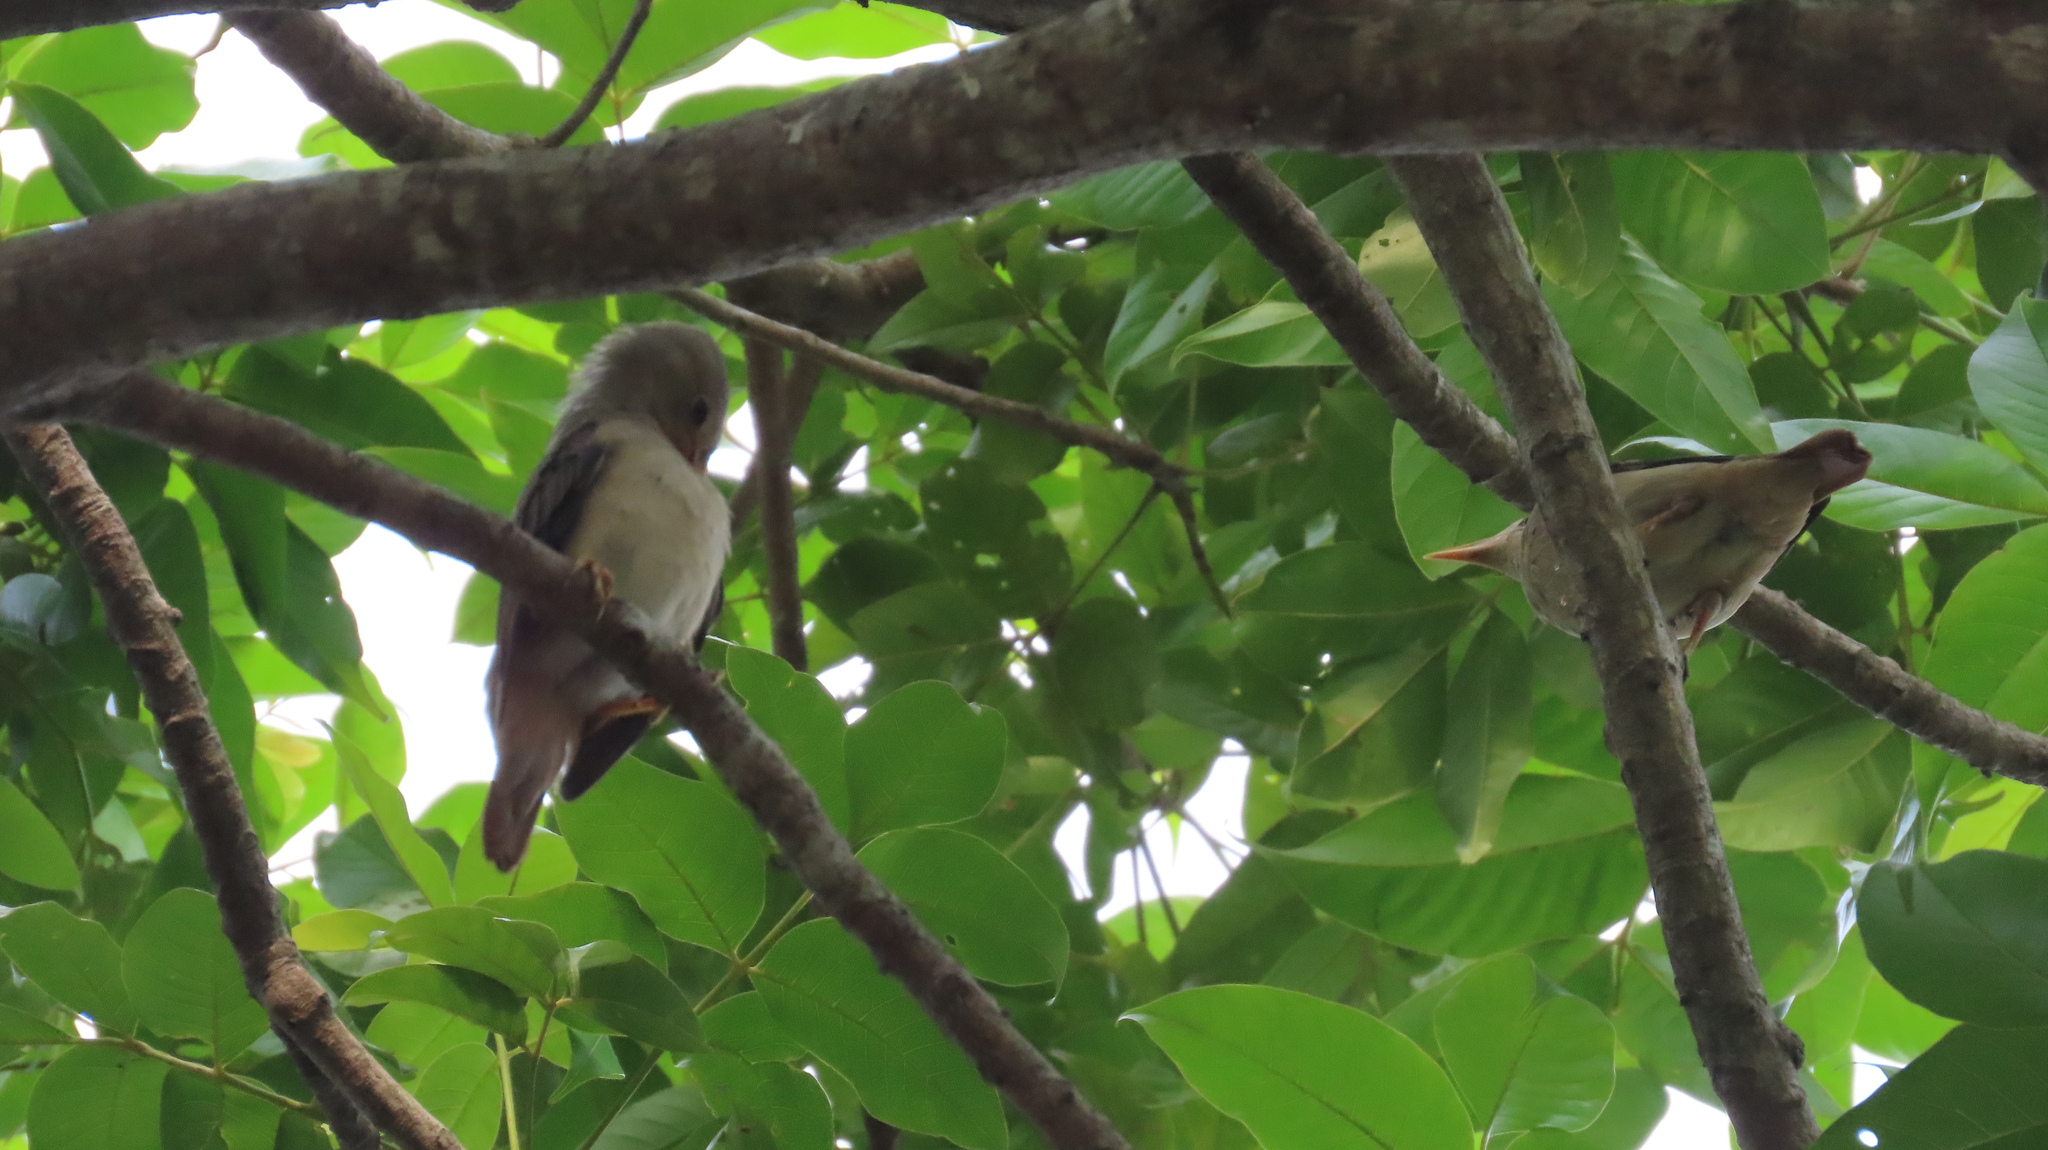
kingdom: Animalia
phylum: Chordata
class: Aves
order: Passeriformes
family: Sturnidae
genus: Sturnia
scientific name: Sturnia blythii
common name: Malabar starling
